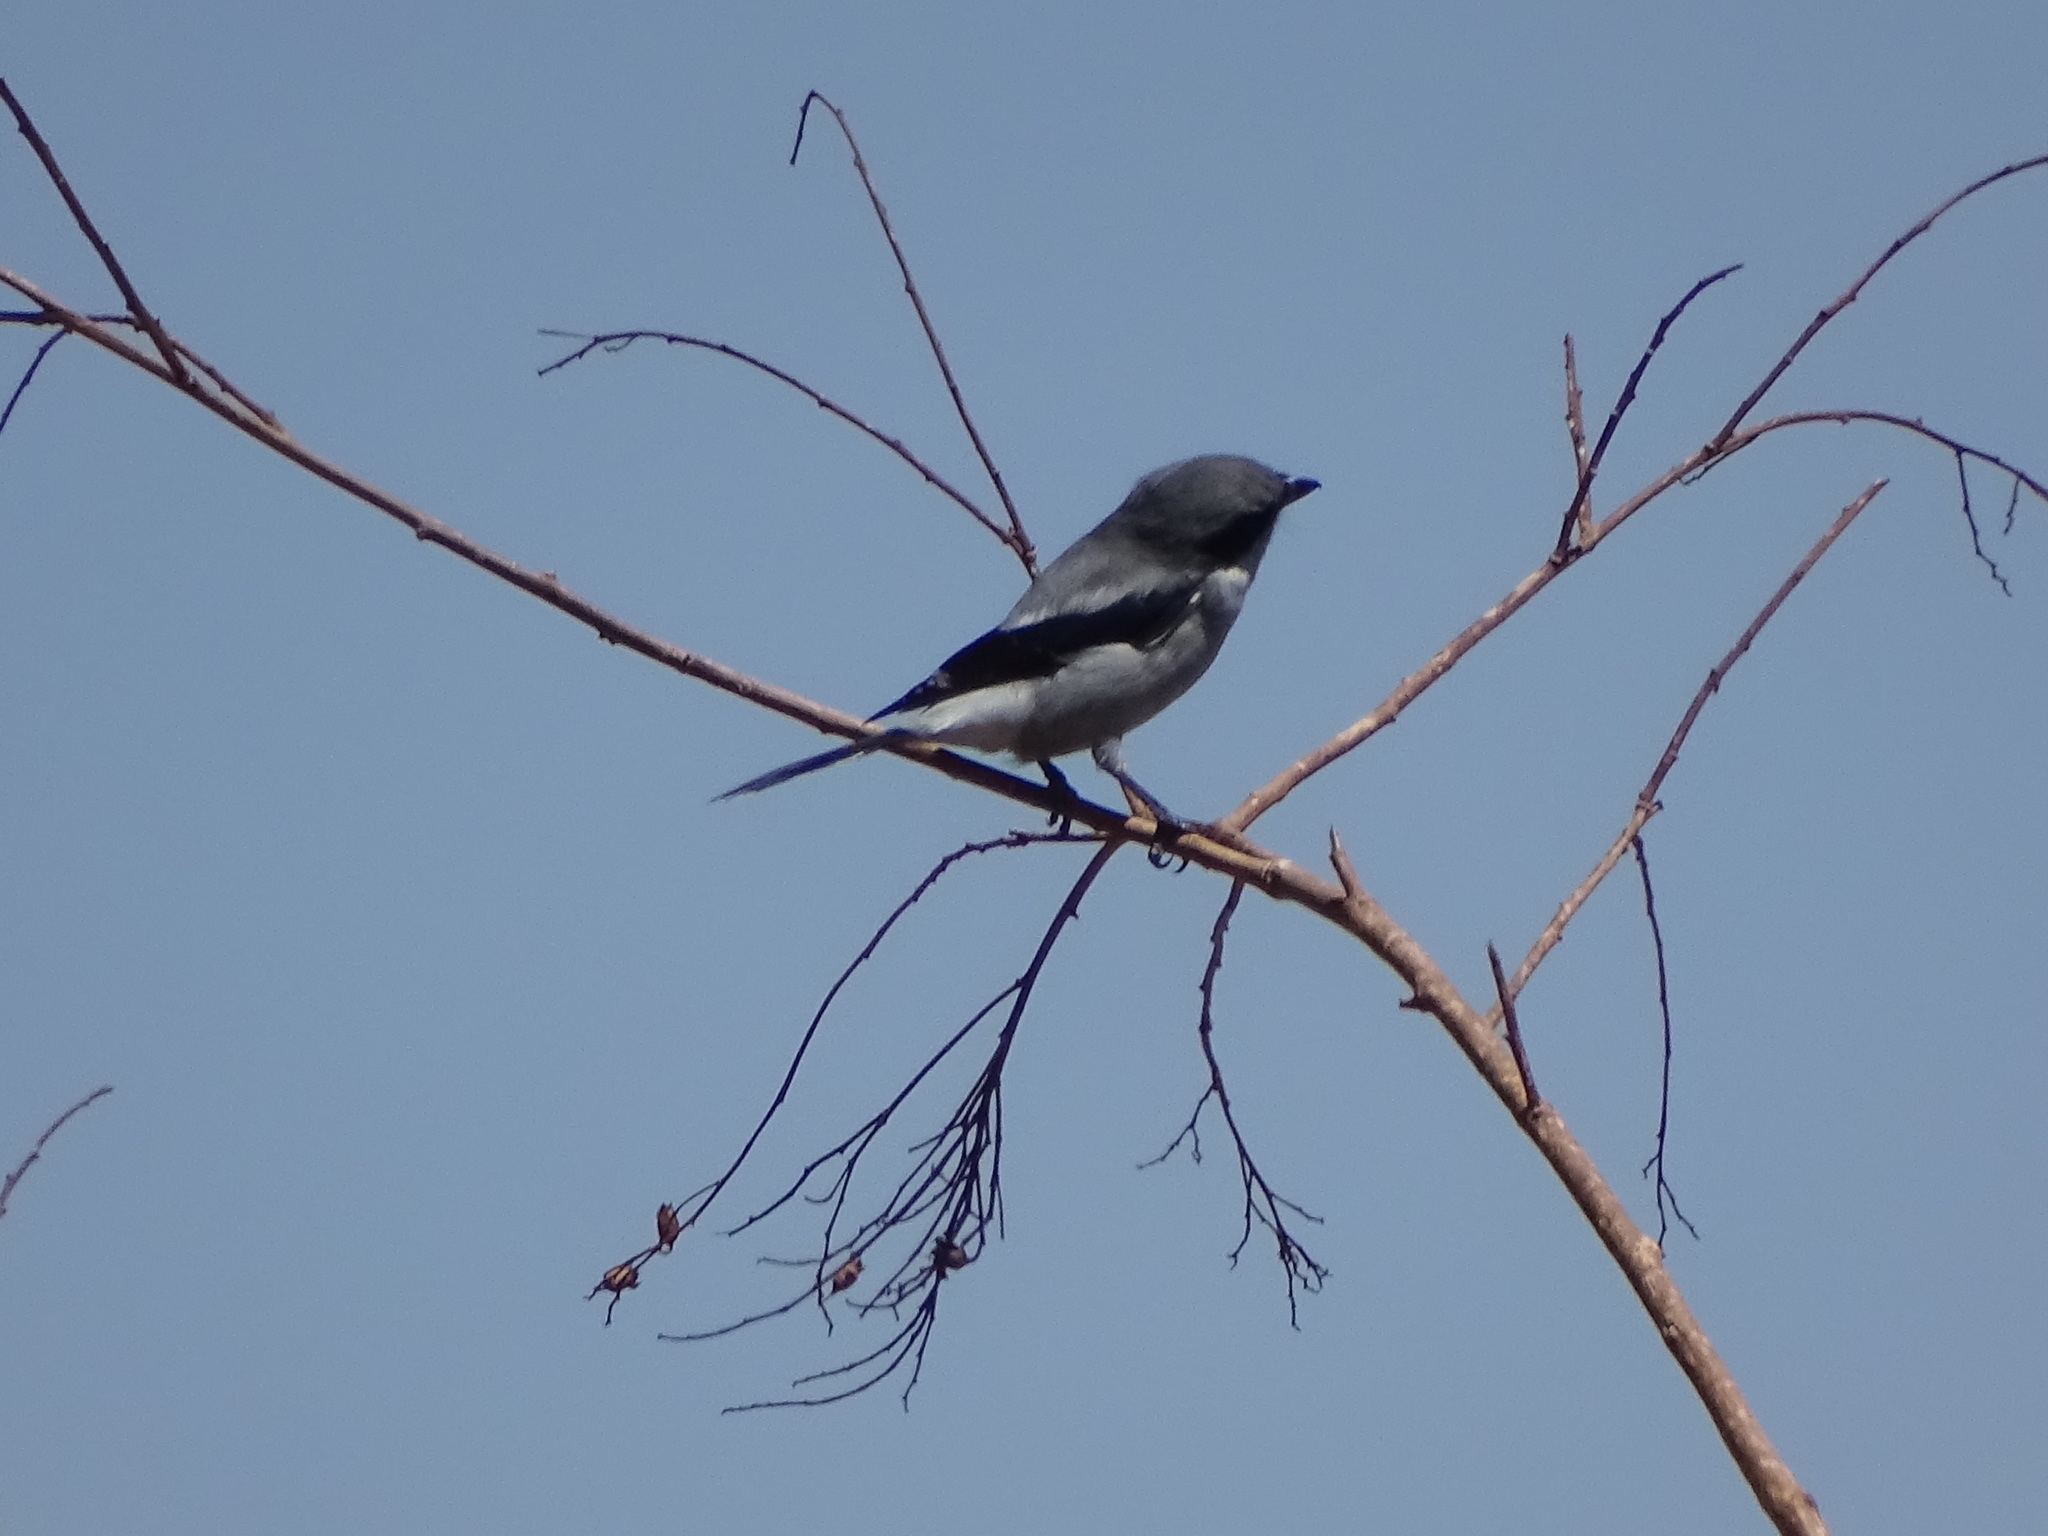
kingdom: Animalia
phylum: Chordata
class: Aves
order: Passeriformes
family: Laniidae
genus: Lanius
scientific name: Lanius ludovicianus
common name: Loggerhead shrike
